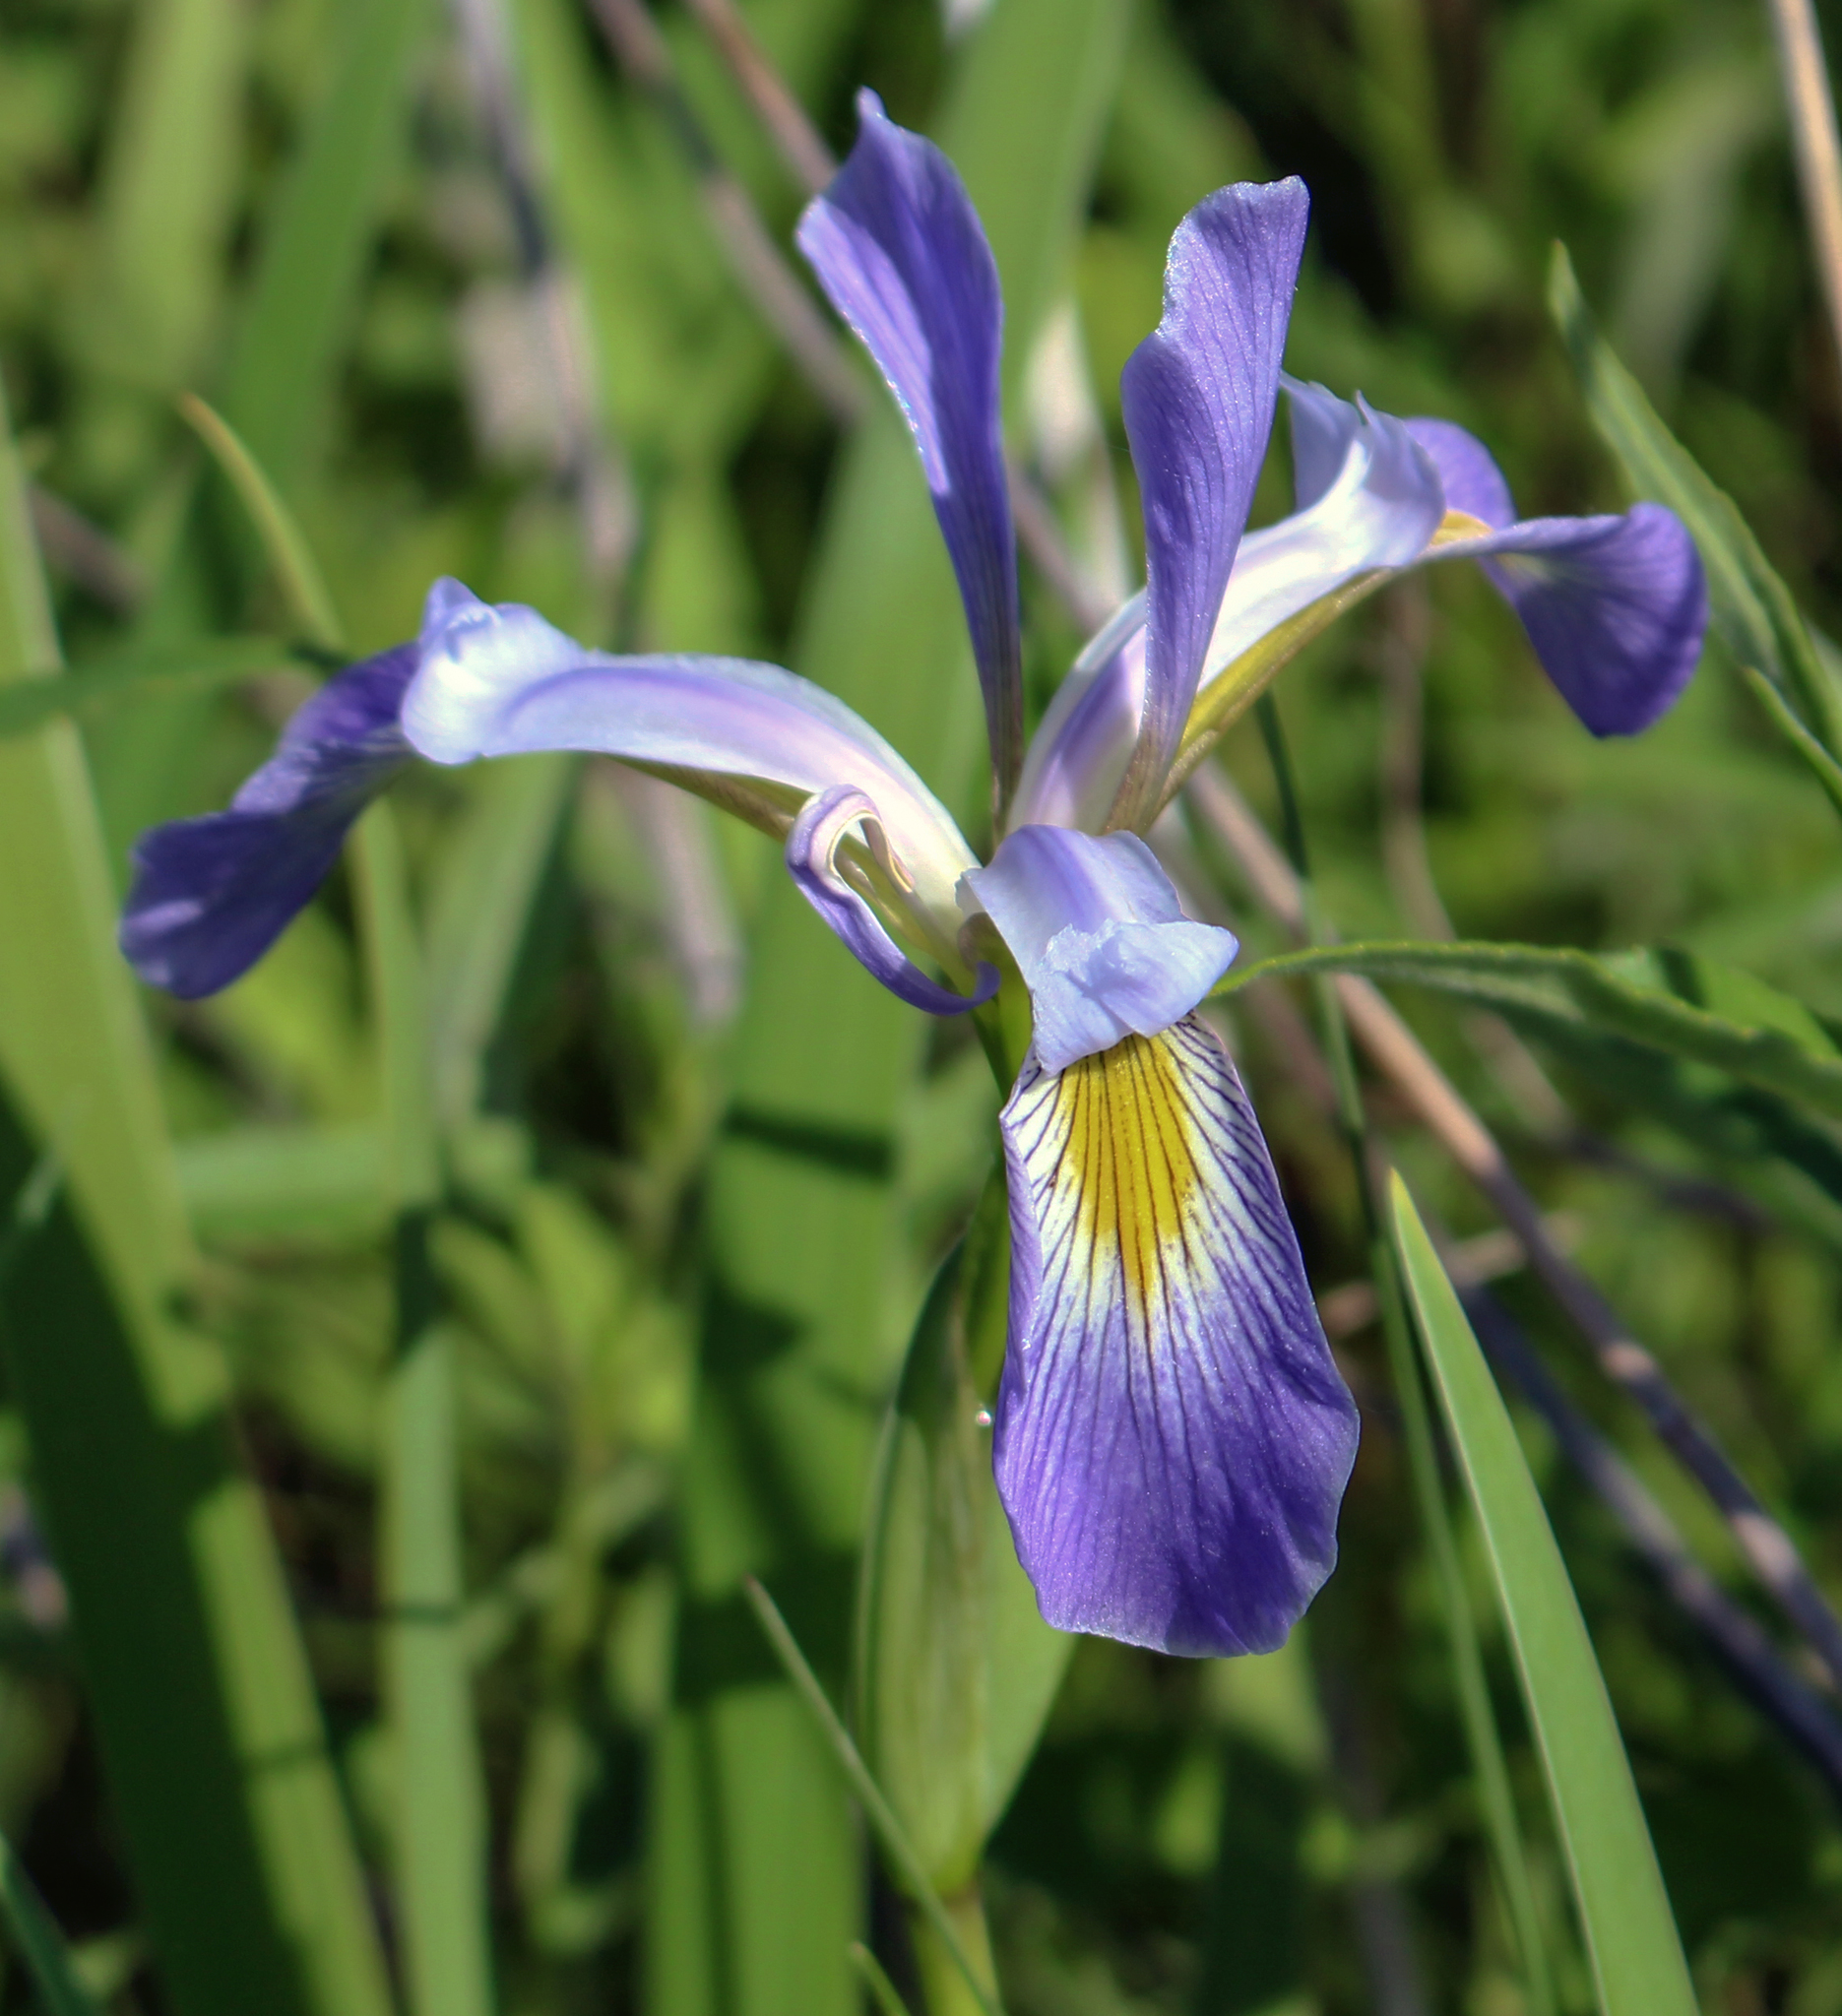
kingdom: Plantae
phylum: Tracheophyta
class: Liliopsida
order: Asparagales
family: Iridaceae
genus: Iris
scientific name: Iris virginica
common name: Southern blue flag
